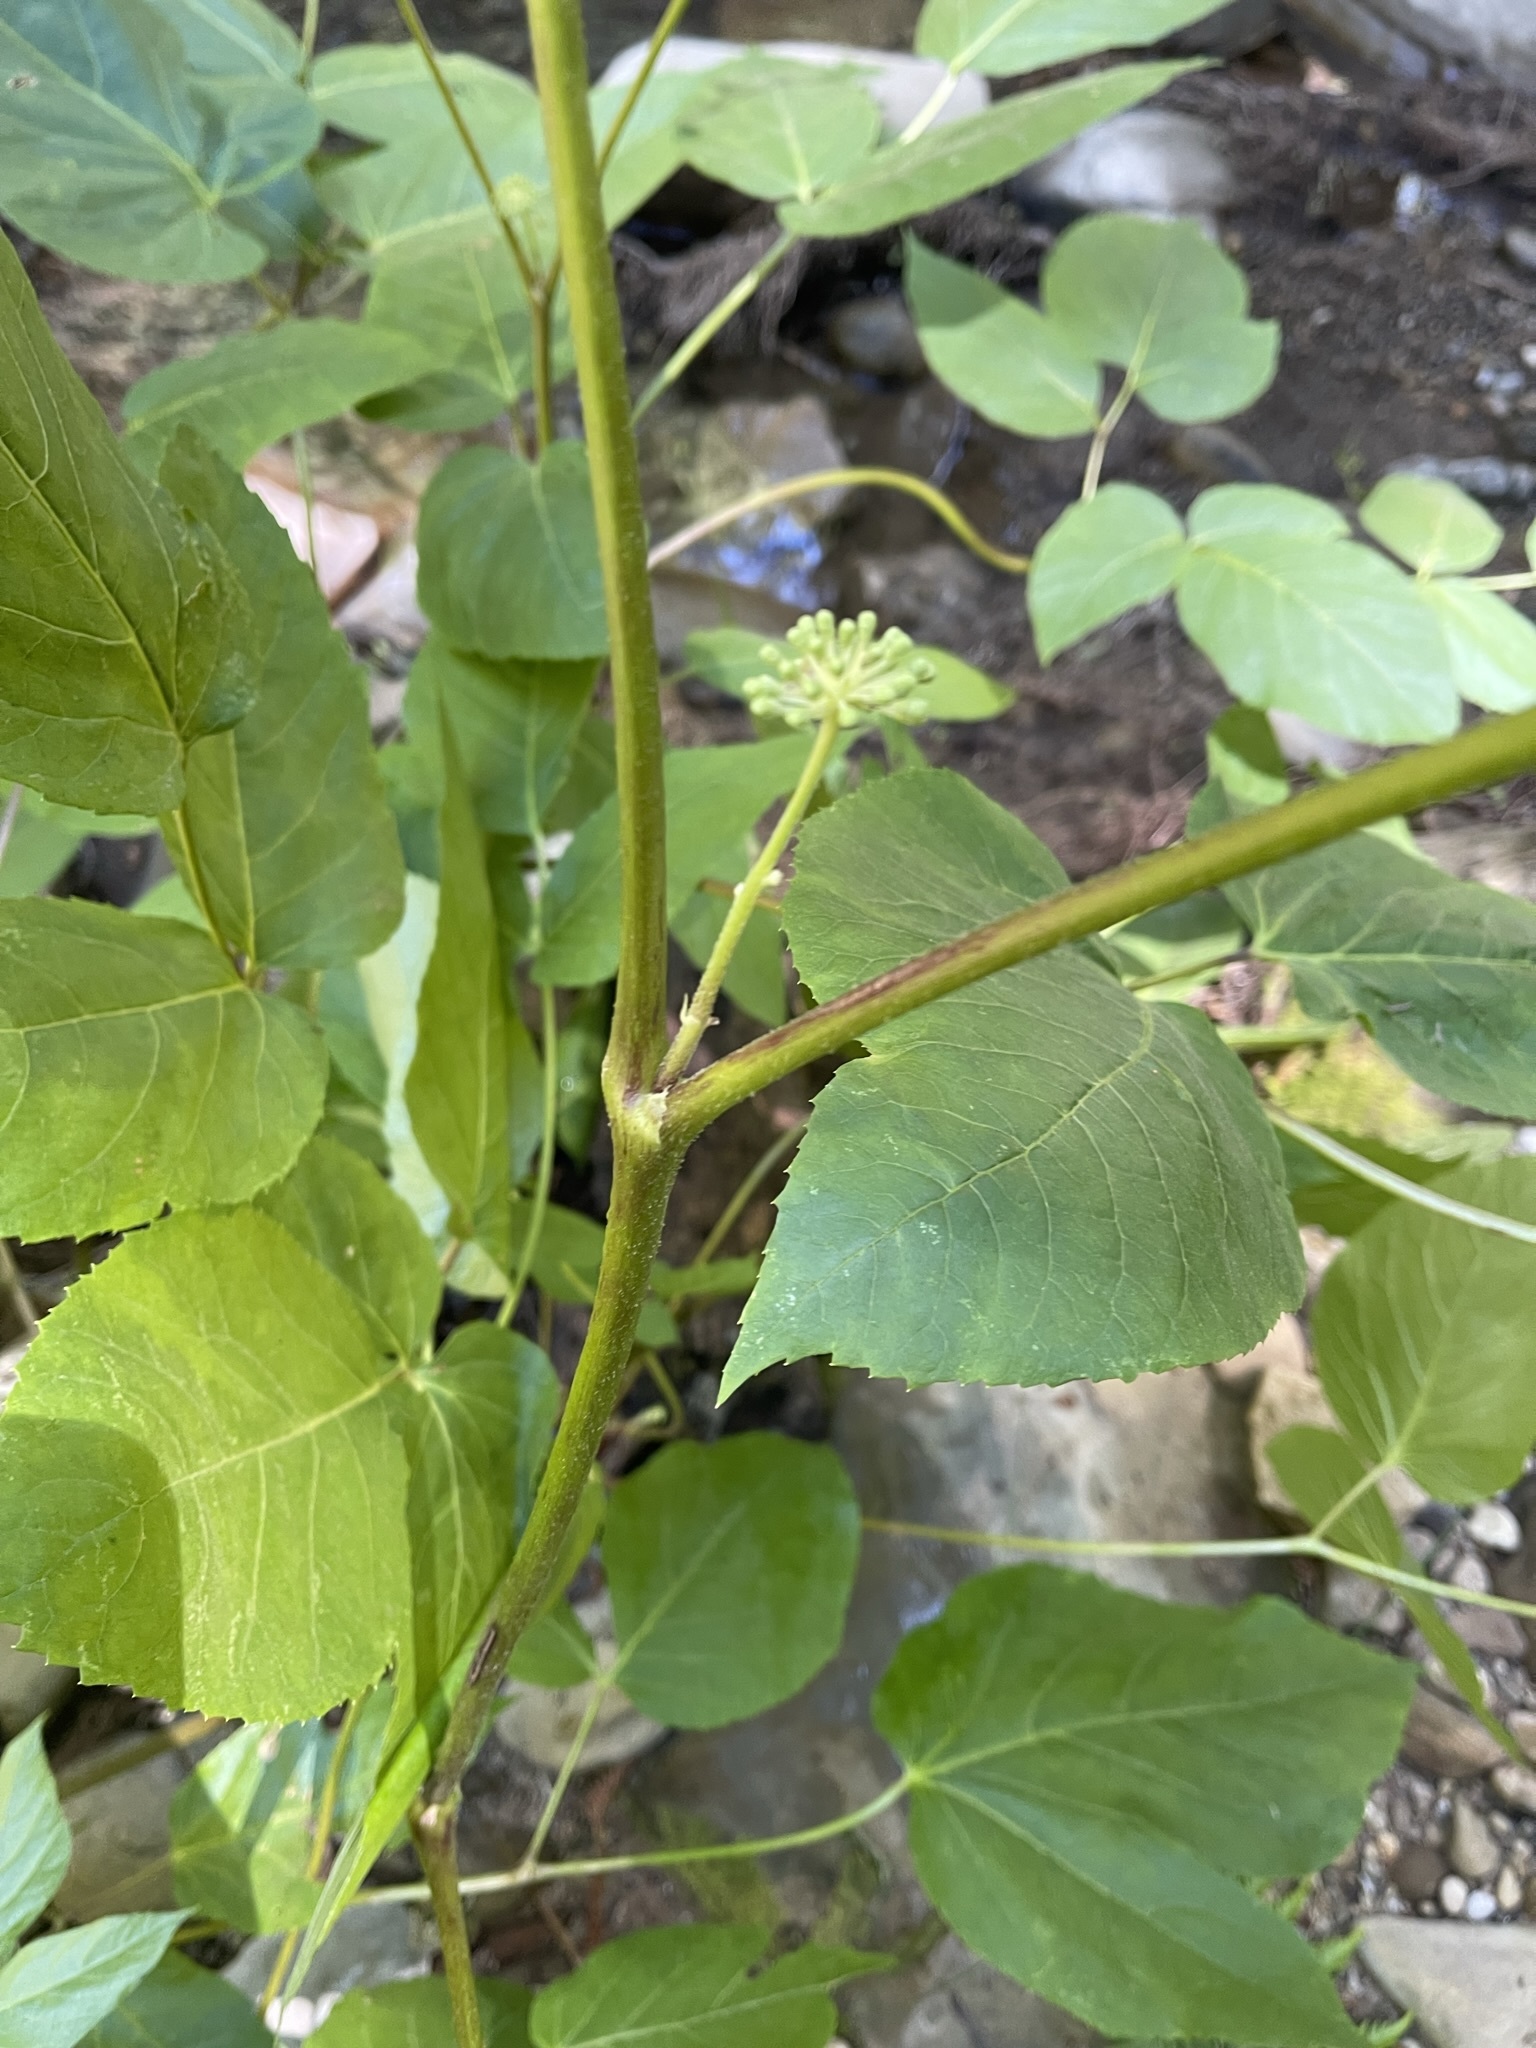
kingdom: Plantae
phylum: Tracheophyta
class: Magnoliopsida
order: Apiales
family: Araliaceae
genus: Aralia
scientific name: Aralia californica
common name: California-ginseng
